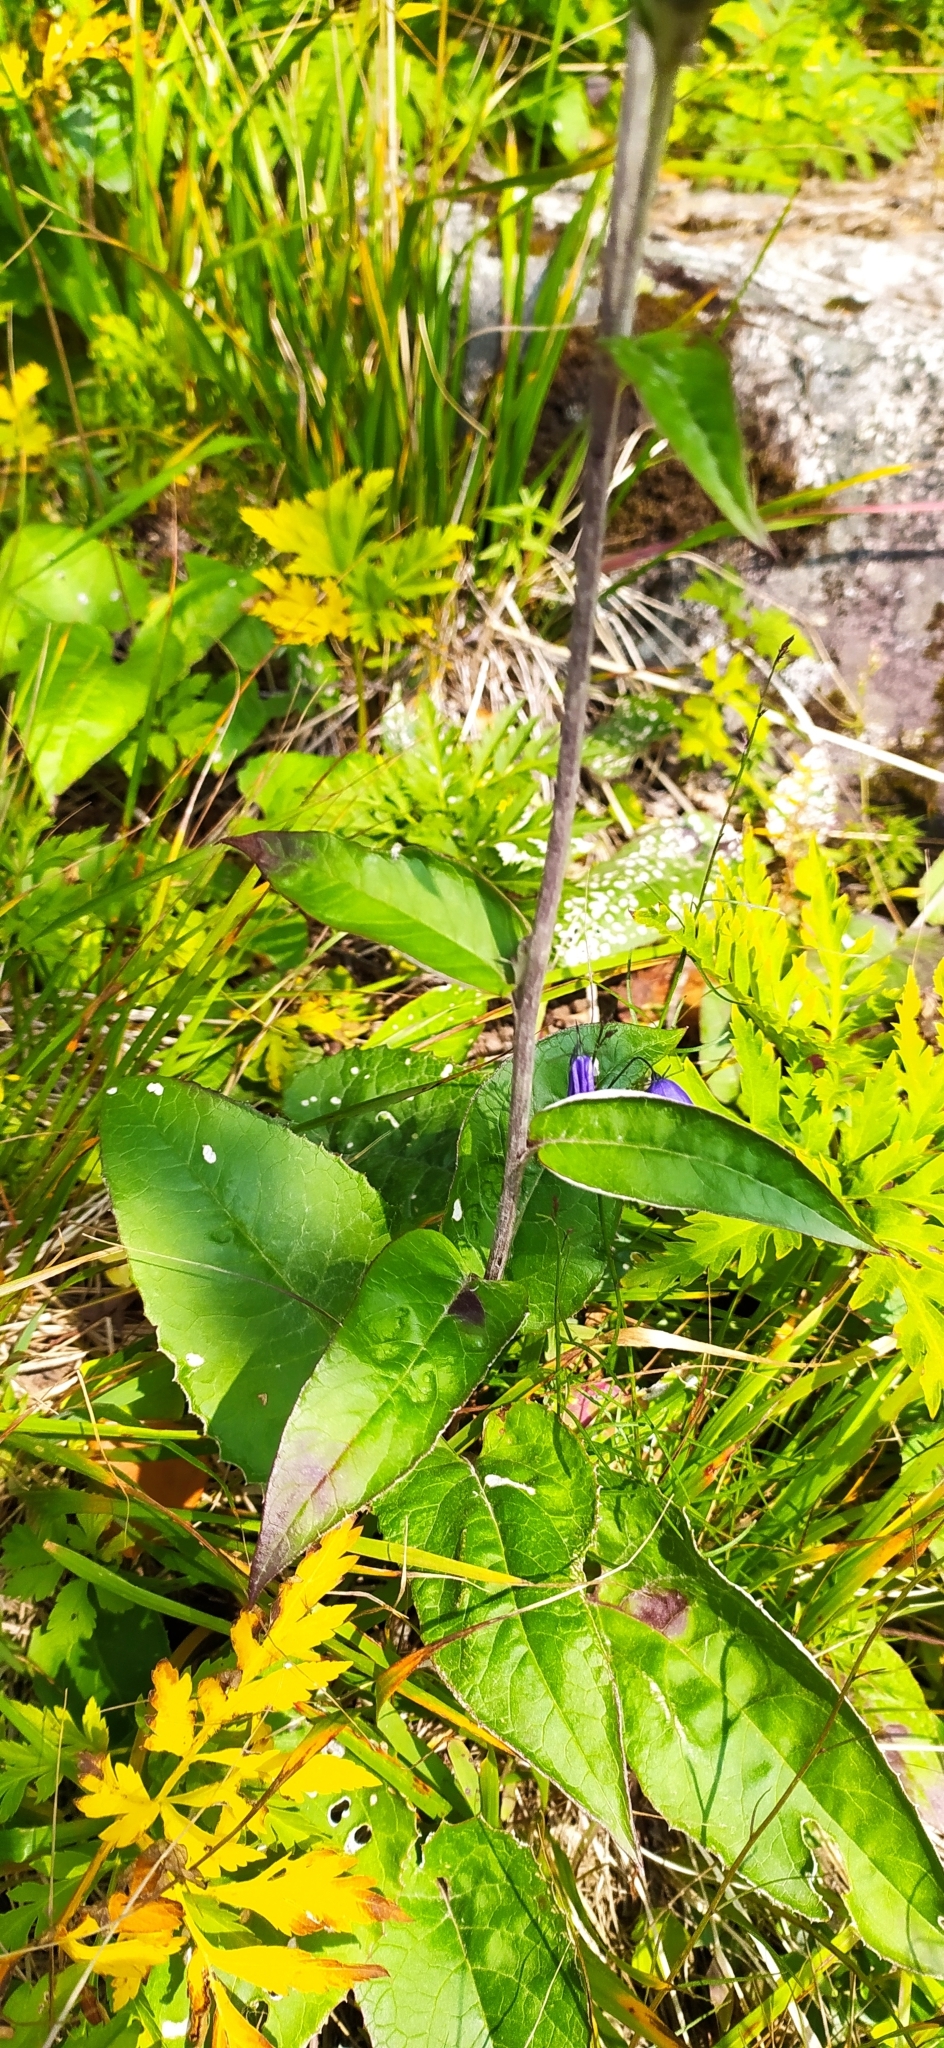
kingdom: Plantae
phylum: Tracheophyta
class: Magnoliopsida
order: Asterales
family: Asteraceae
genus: Saussurea
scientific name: Saussurea controversa
